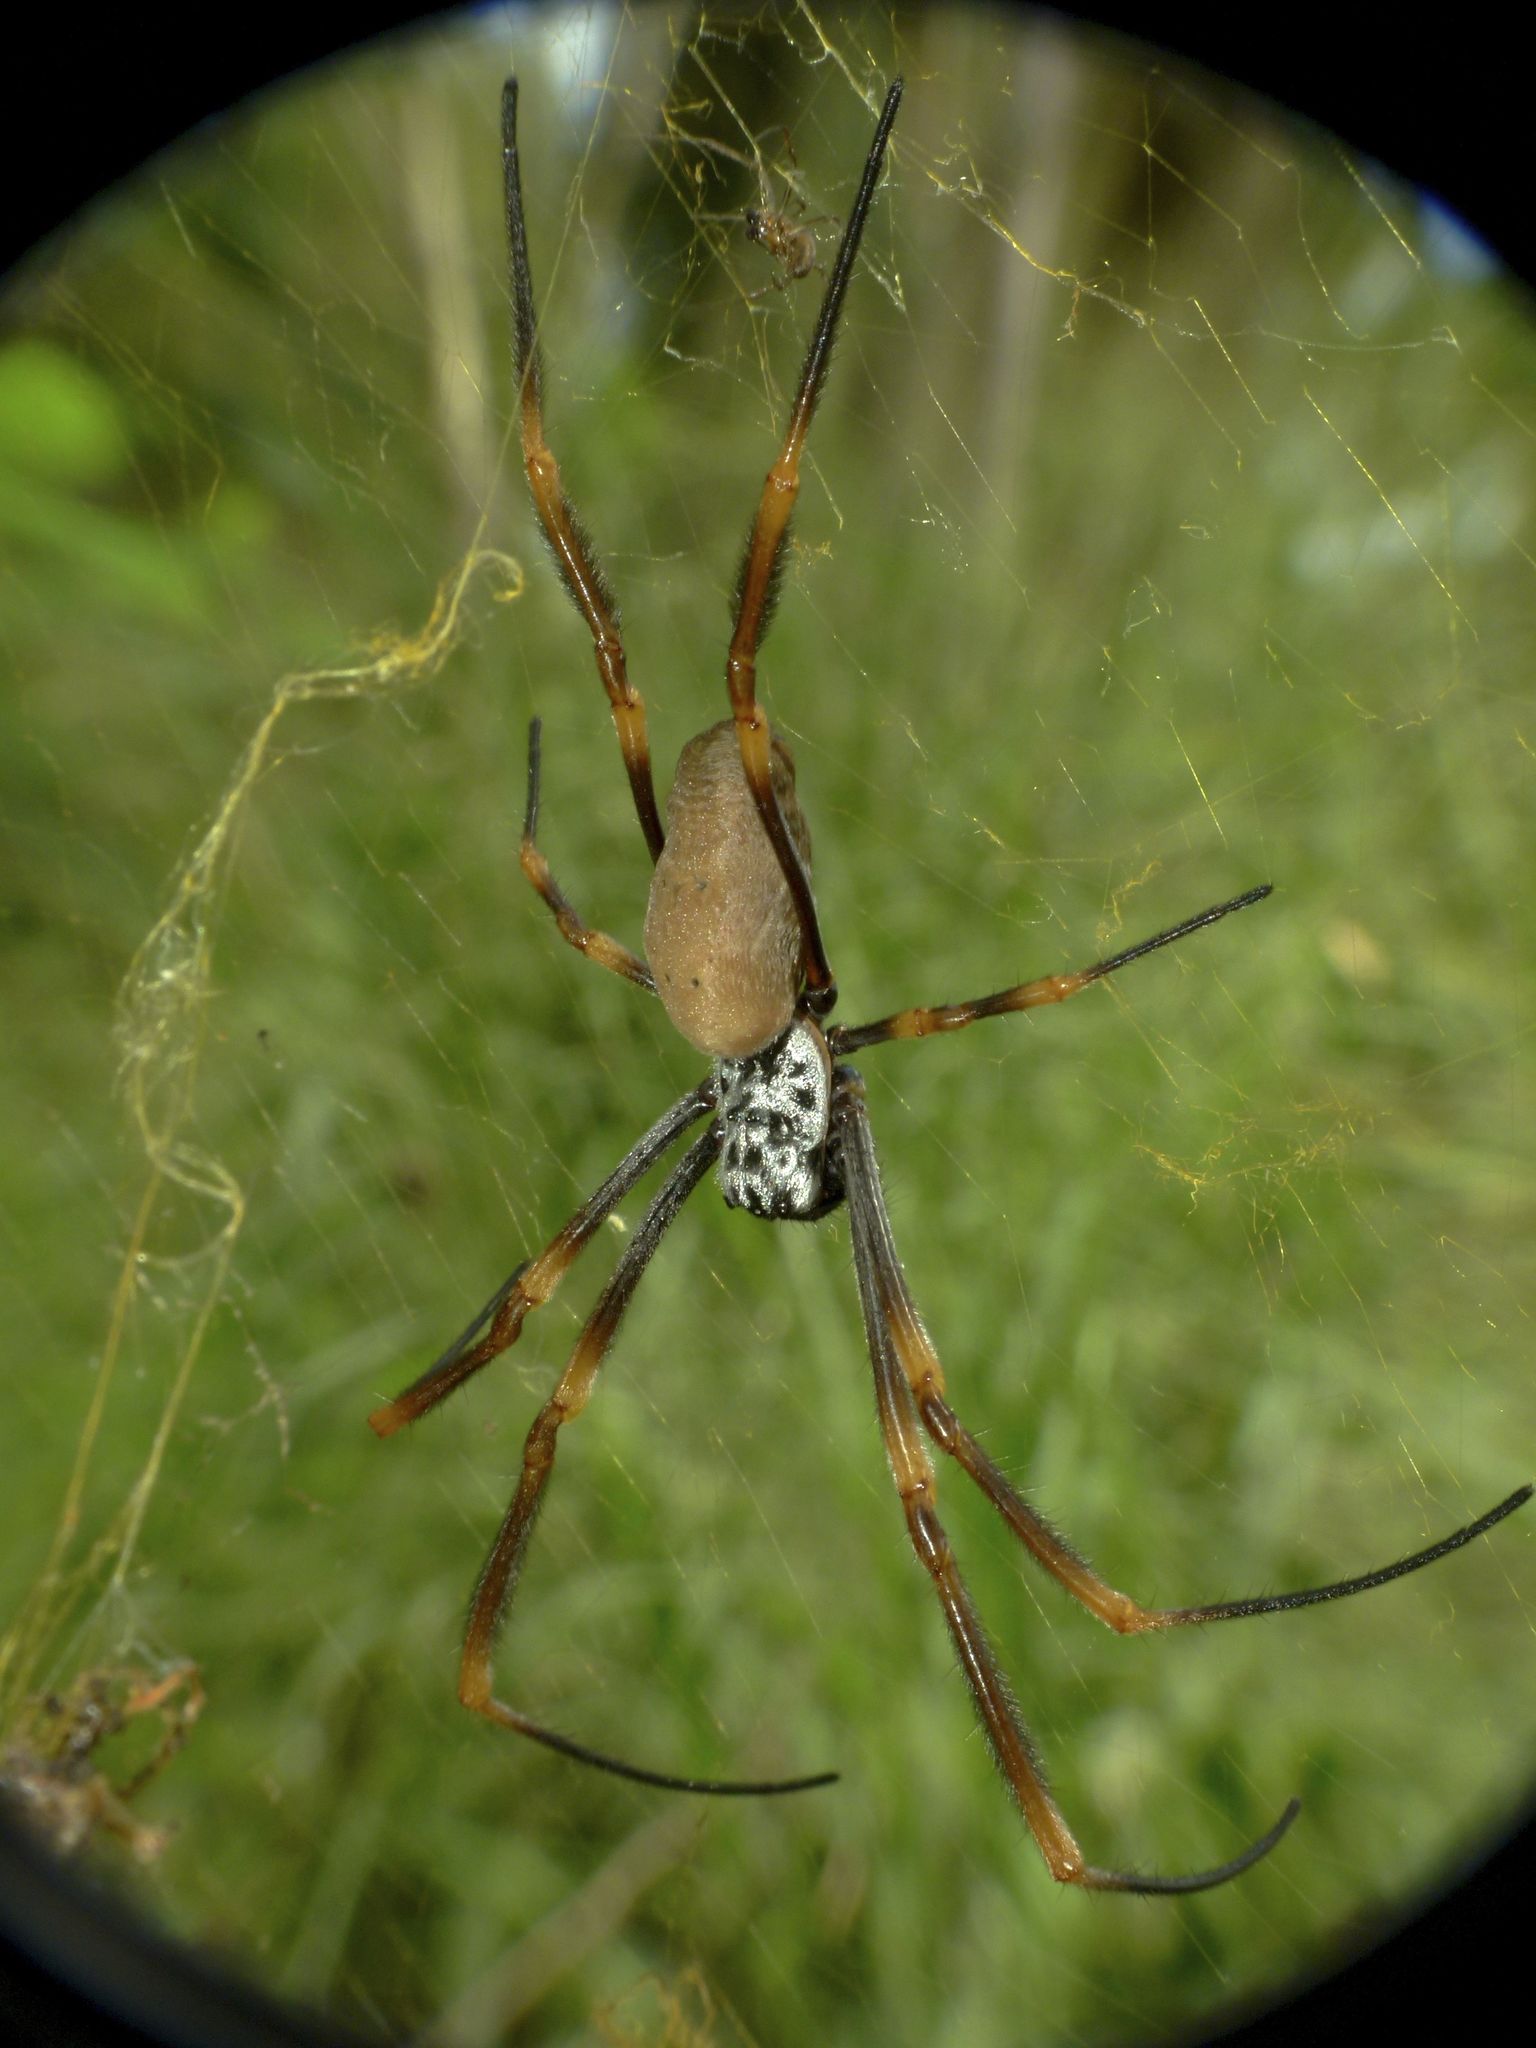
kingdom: Animalia
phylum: Arthropoda
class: Arachnida
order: Araneae
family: Araneidae
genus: Trichonephila
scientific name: Trichonephila plumipes
